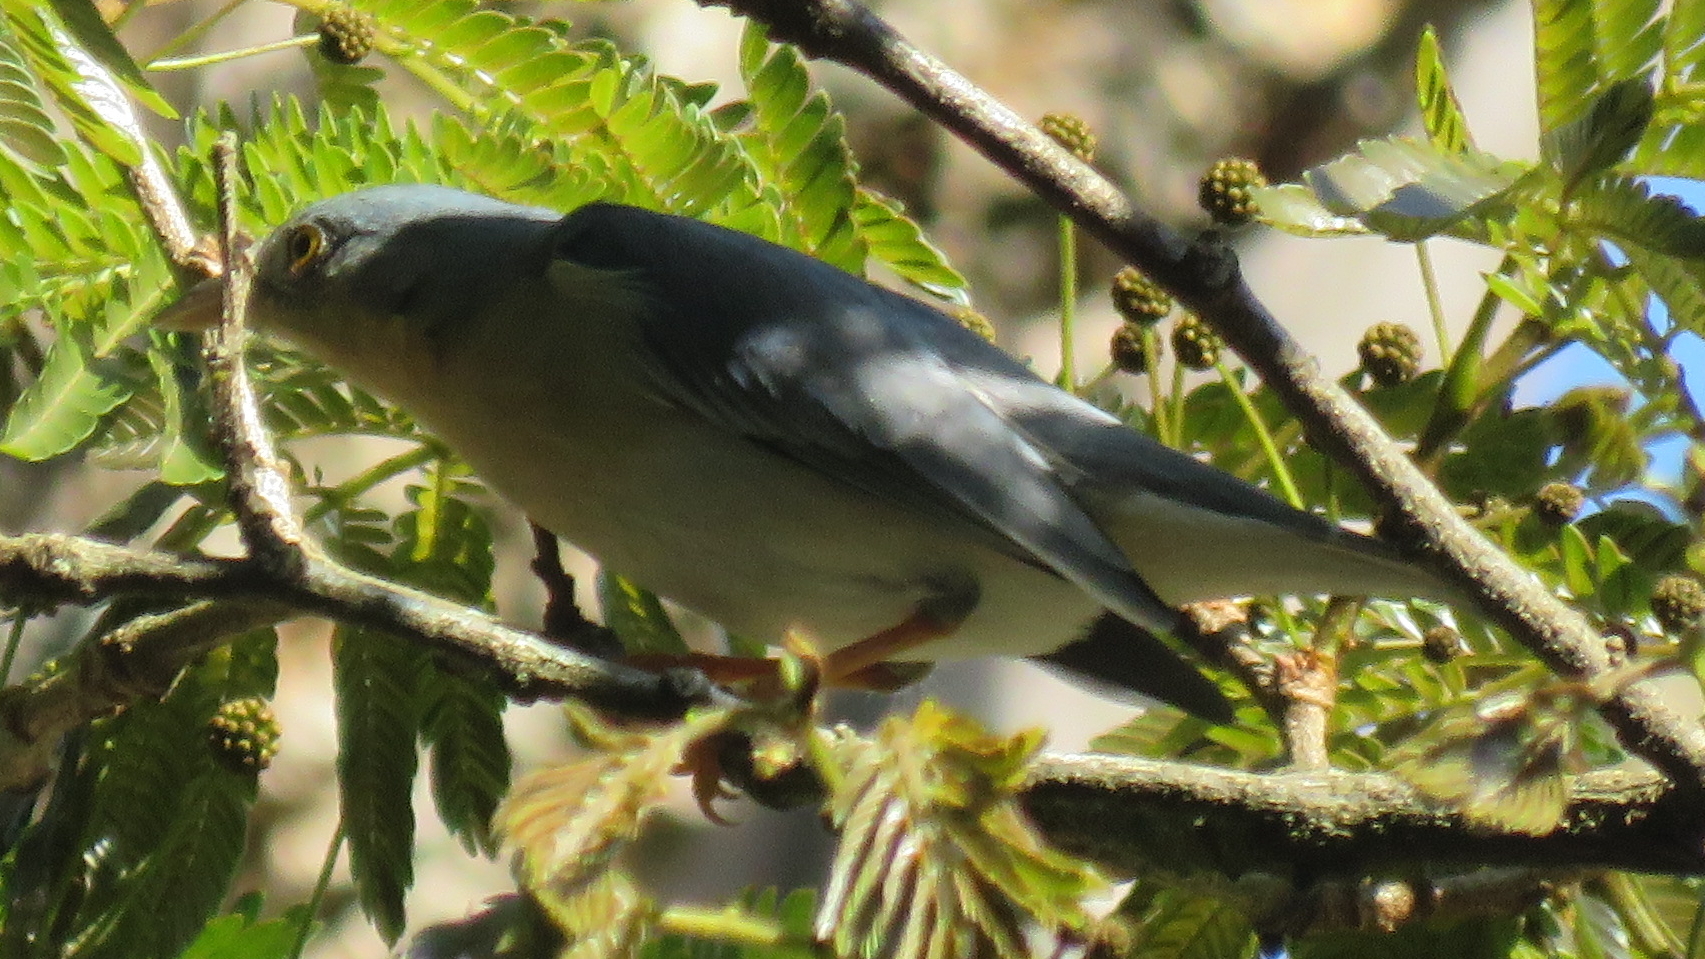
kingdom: Animalia
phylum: Chordata
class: Aves
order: Passeriformes
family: Thraupidae
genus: Nemosia
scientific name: Nemosia pileata
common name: Hooded tanager
